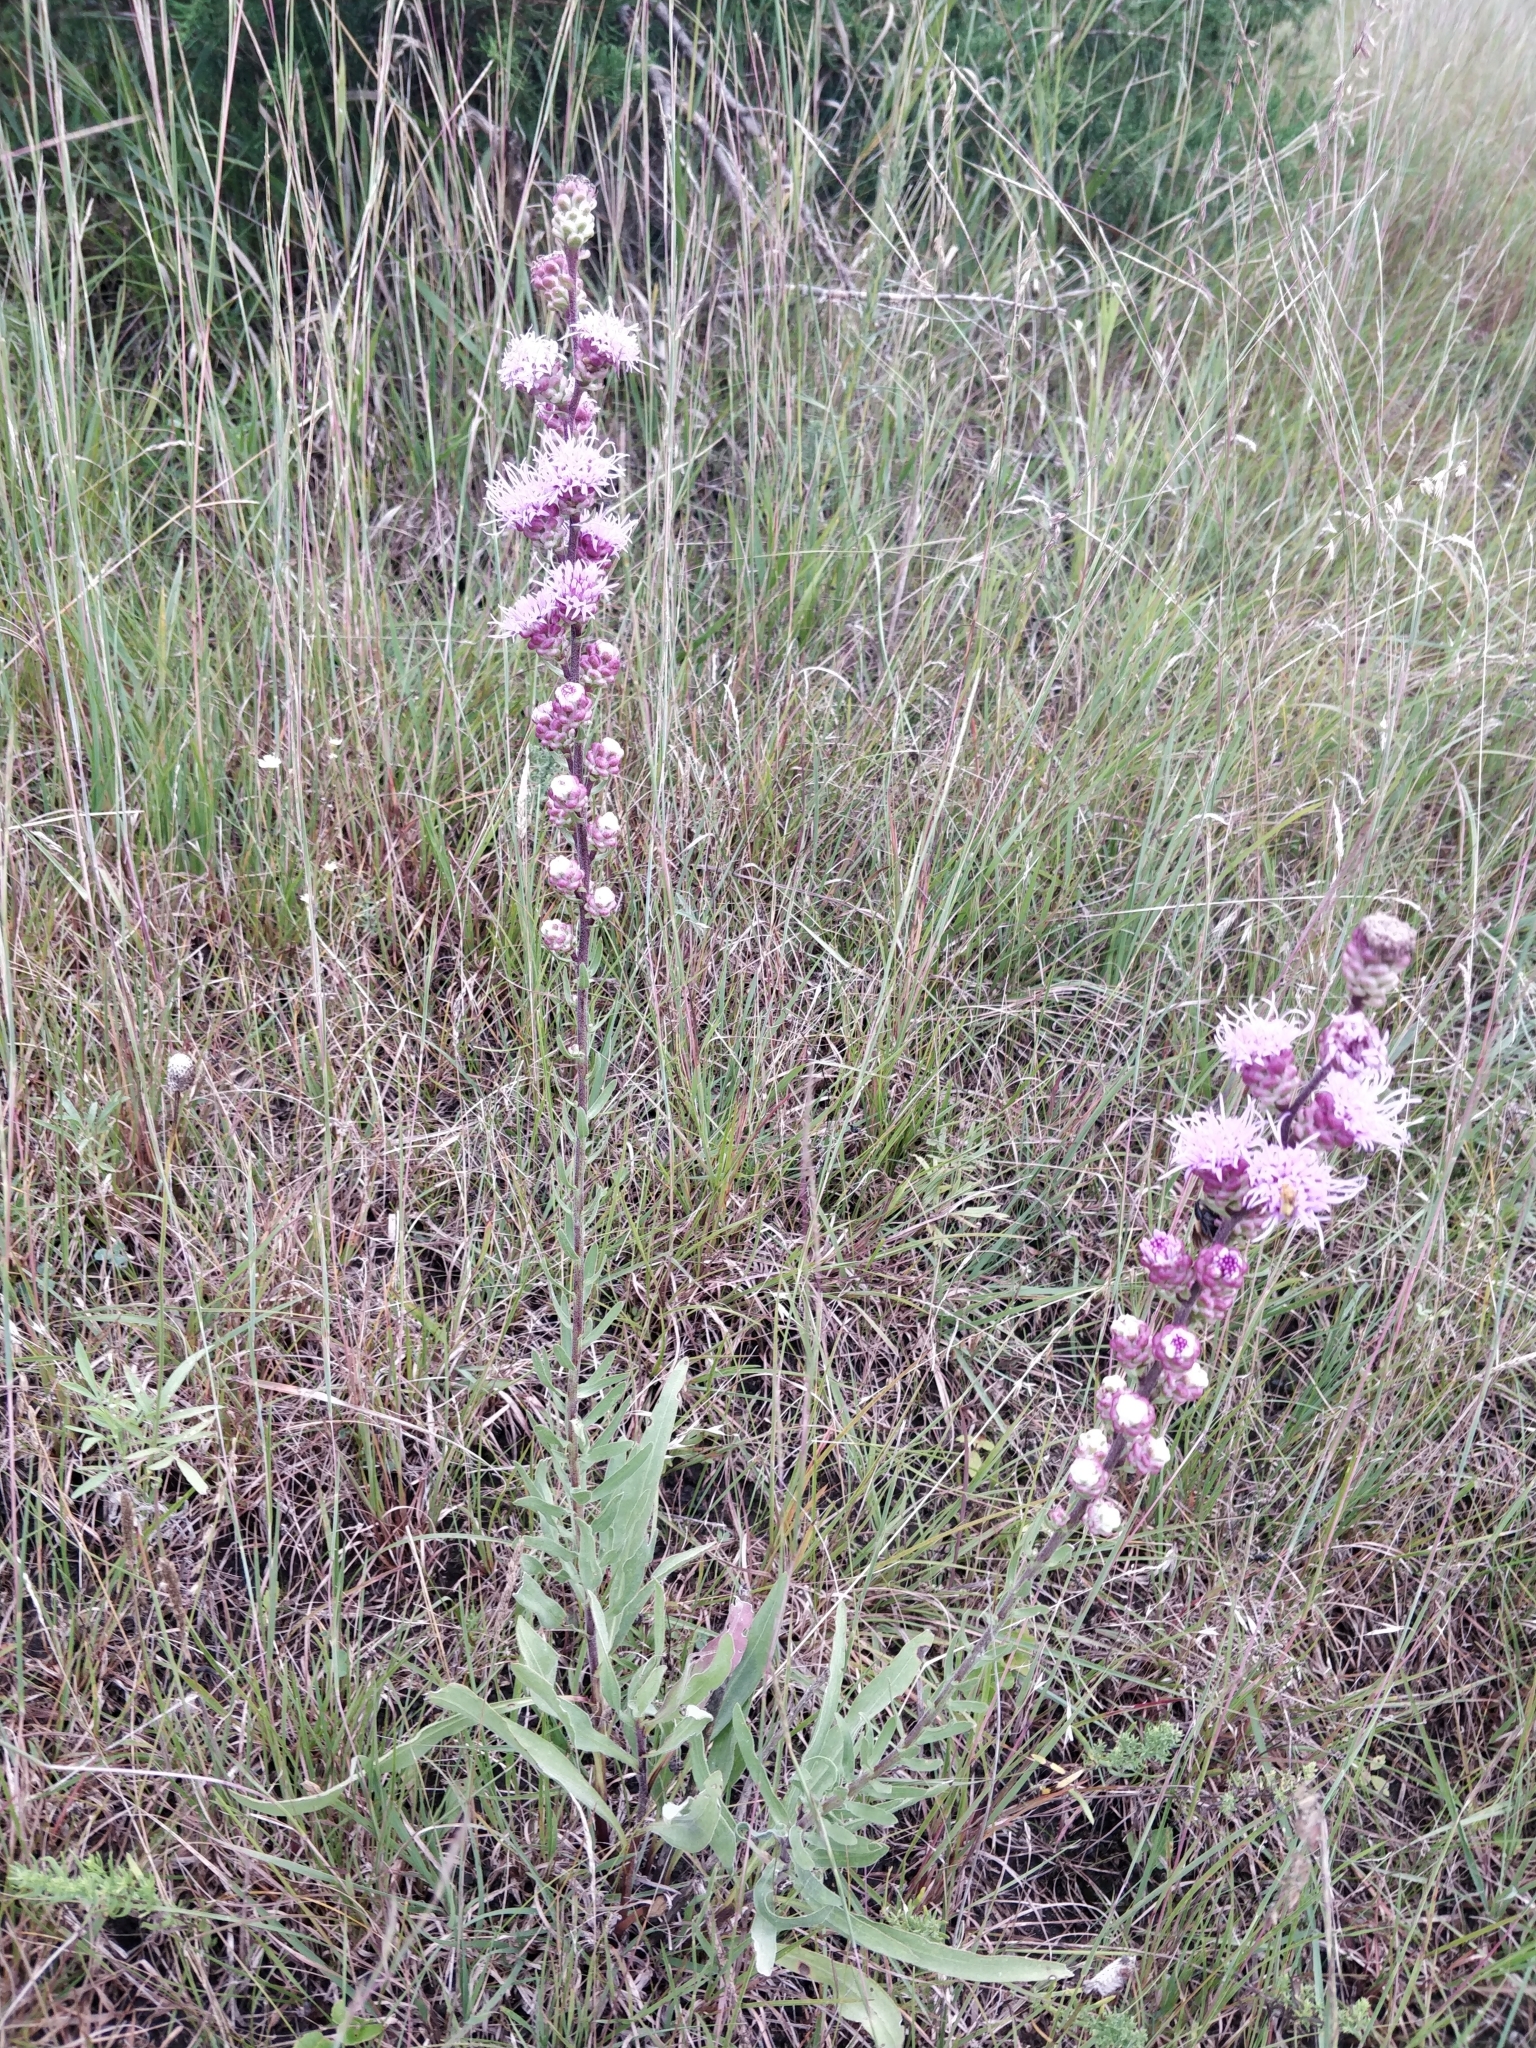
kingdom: Plantae
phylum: Tracheophyta
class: Magnoliopsida
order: Asterales
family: Asteraceae
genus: Liatris
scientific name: Liatris aspera
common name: Lacerate blazing-star
